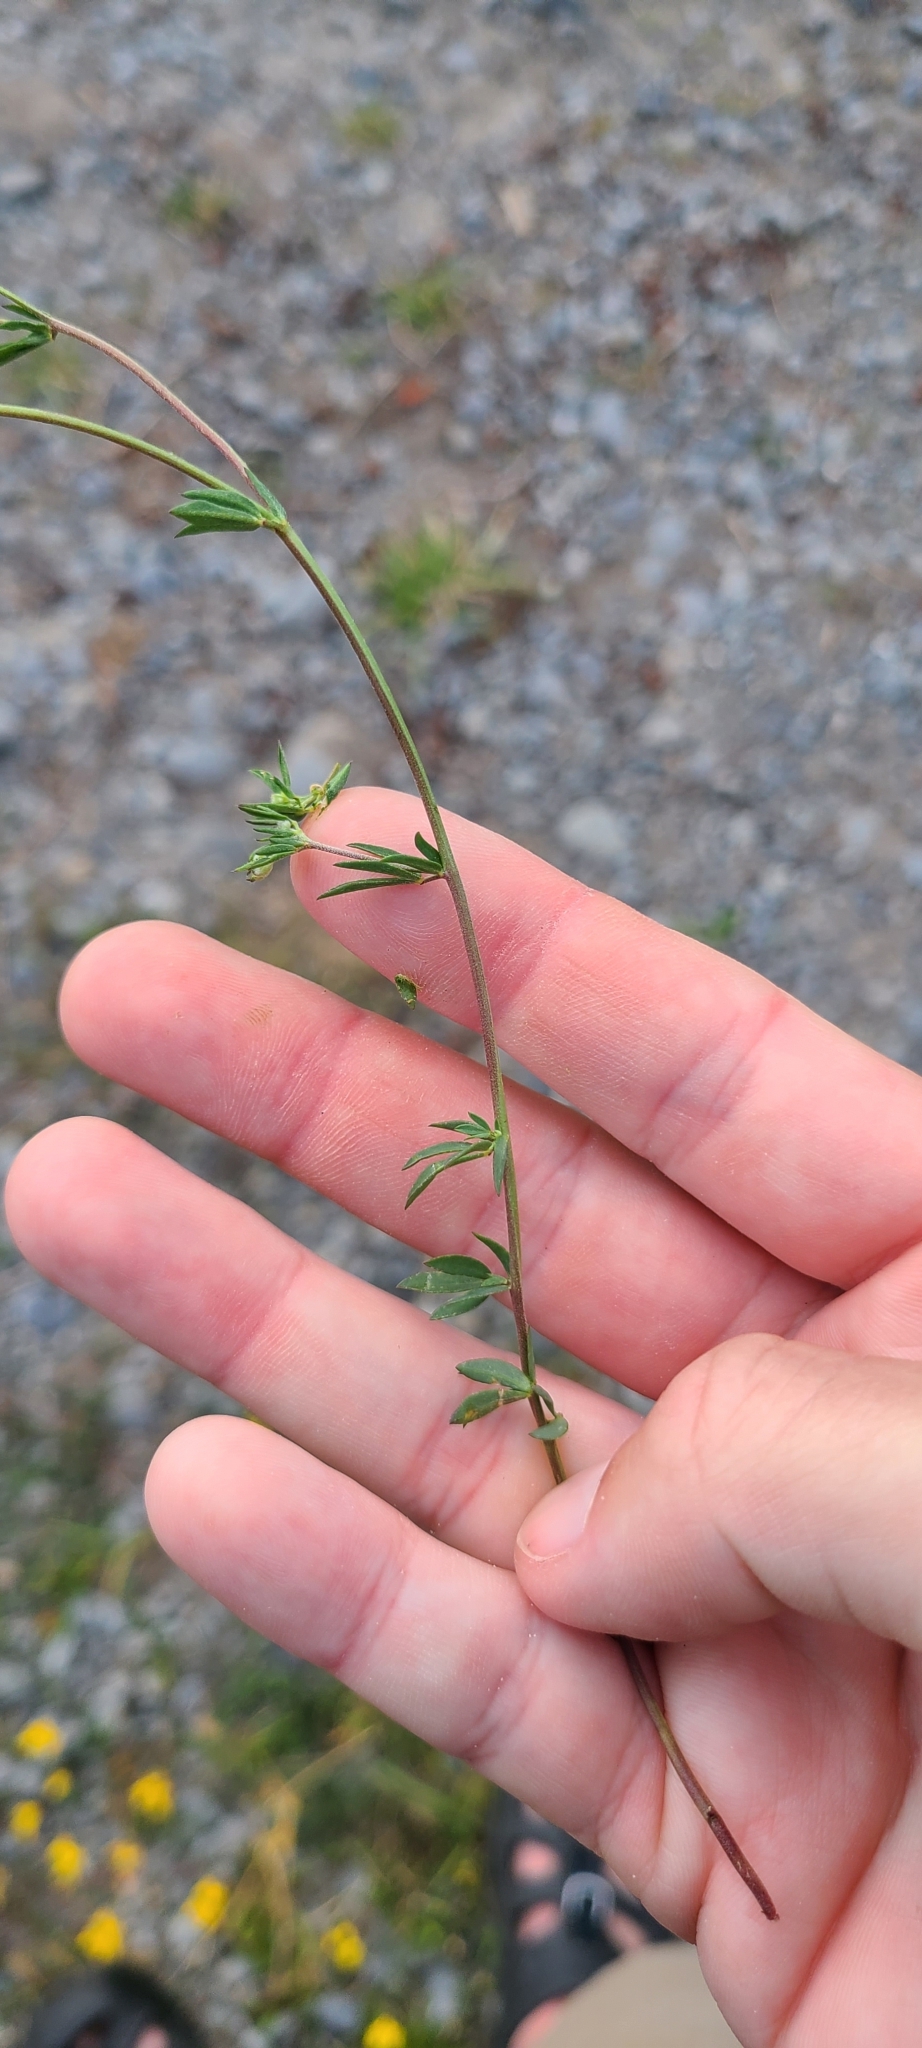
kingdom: Plantae
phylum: Tracheophyta
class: Magnoliopsida
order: Fabales
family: Fabaceae
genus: Lotus
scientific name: Lotus tenuis
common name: Narrow-leaved bird's-foot-trefoil
